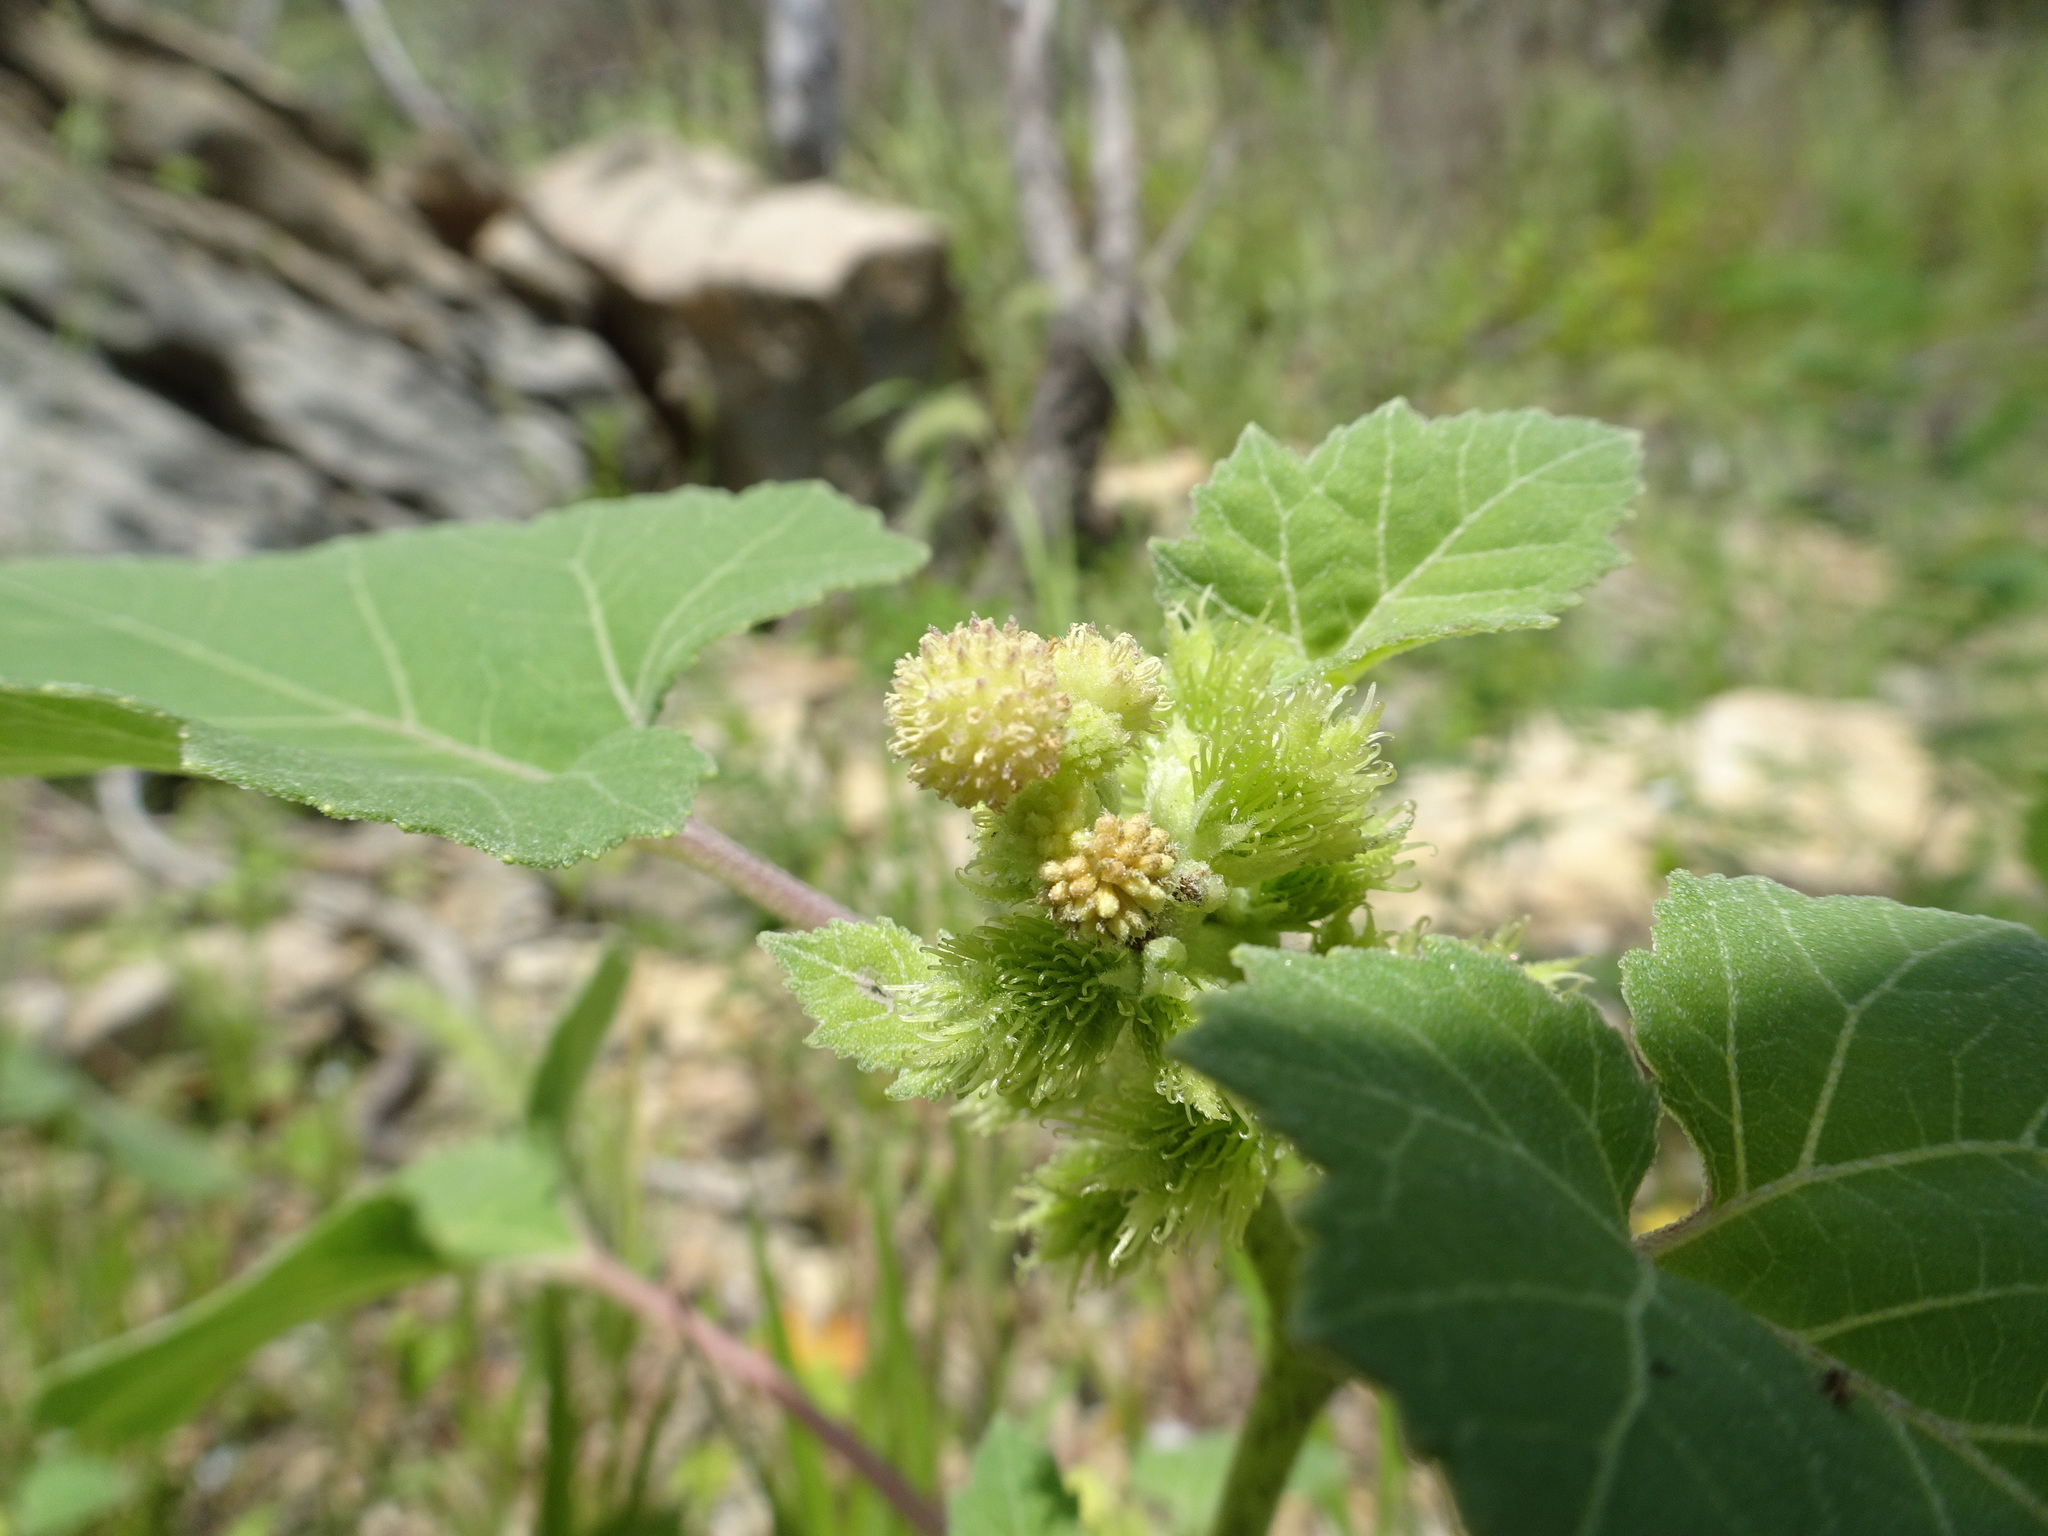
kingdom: Plantae
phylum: Tracheophyta
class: Magnoliopsida
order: Asterales
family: Asteraceae
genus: Xanthium
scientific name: Xanthium strumarium
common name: Rough cocklebur
